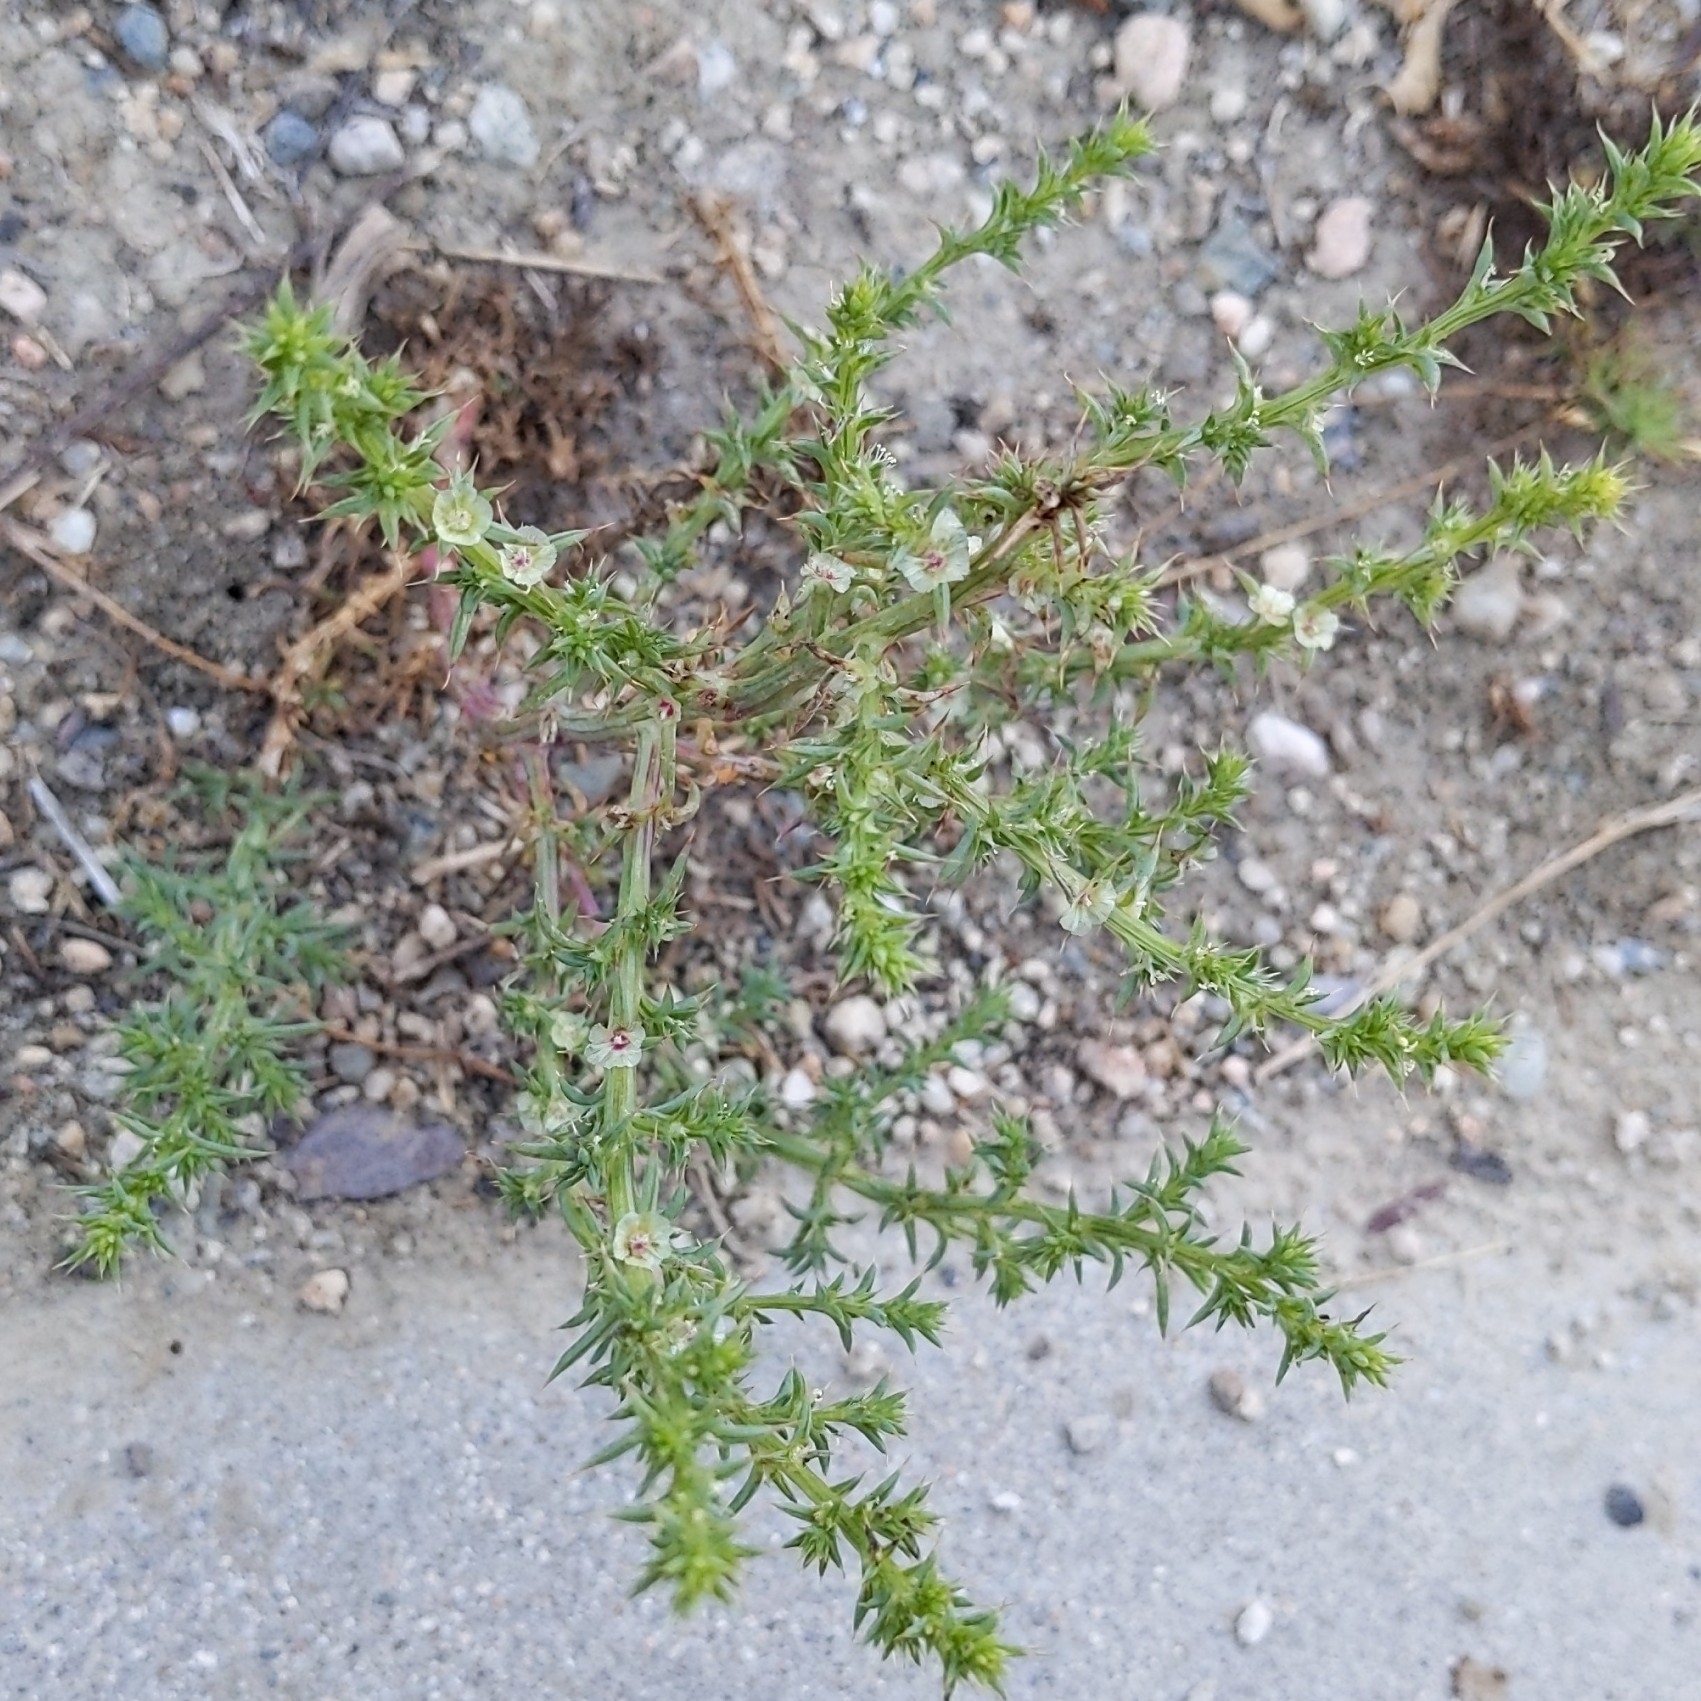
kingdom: Plantae
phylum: Tracheophyta
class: Magnoliopsida
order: Caryophyllales
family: Amaranthaceae
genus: Salsola
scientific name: Salsola australis
